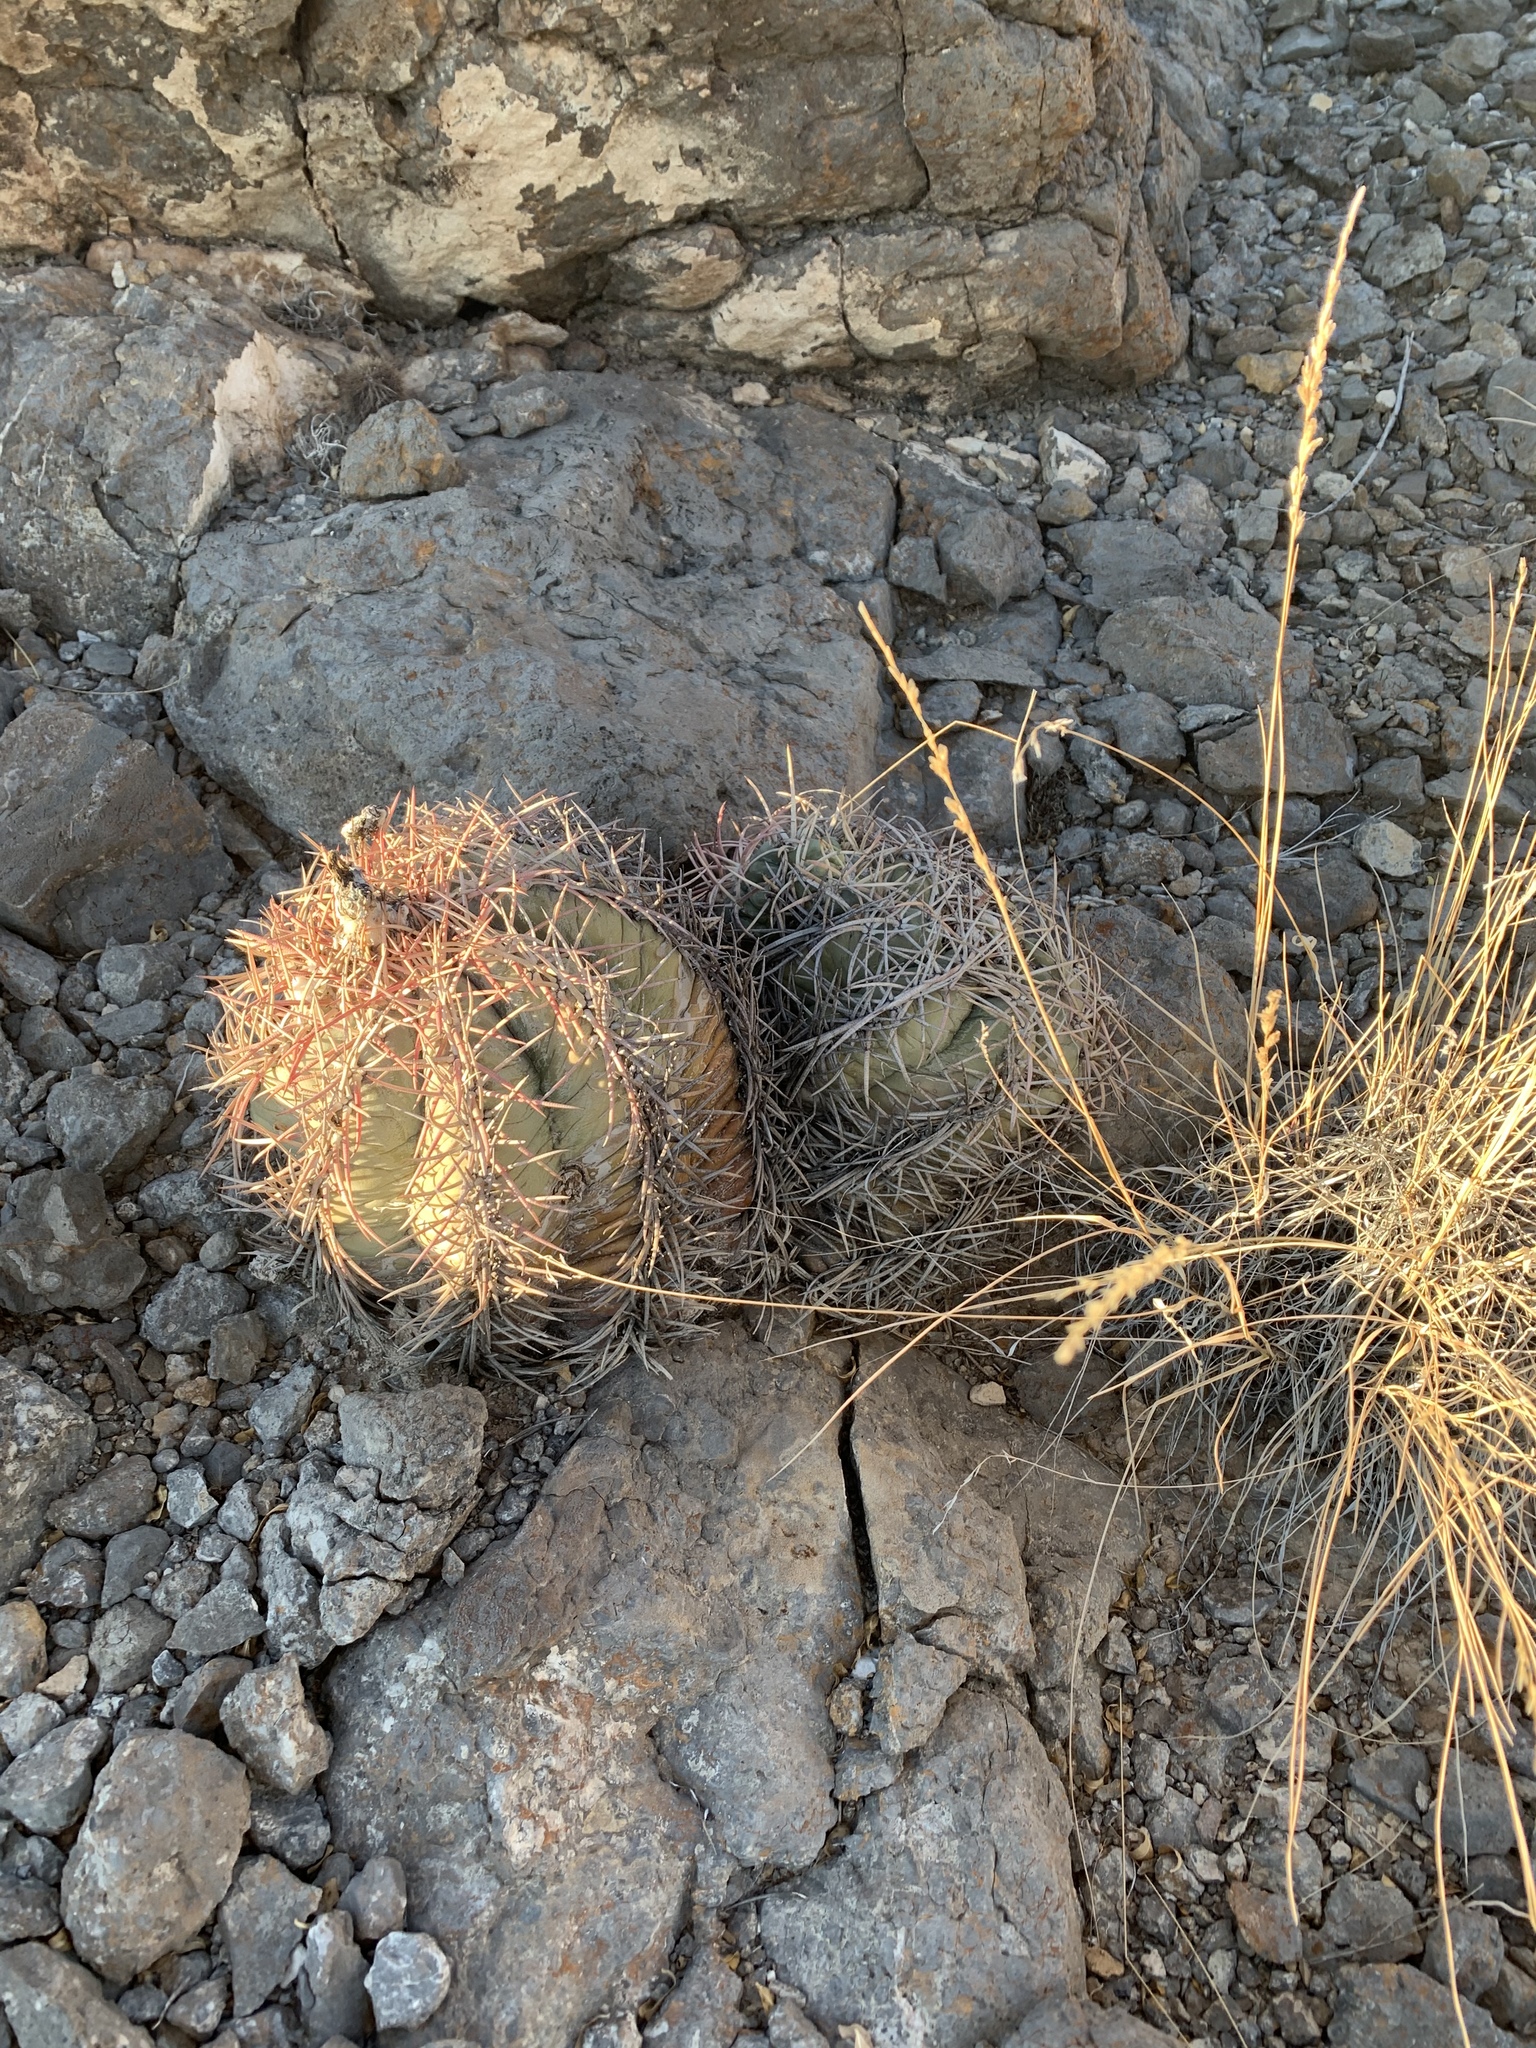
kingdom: Plantae
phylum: Tracheophyta
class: Magnoliopsida
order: Caryophyllales
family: Cactaceae
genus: Echinocactus
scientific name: Echinocactus horizonthalonius
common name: Devilshead
